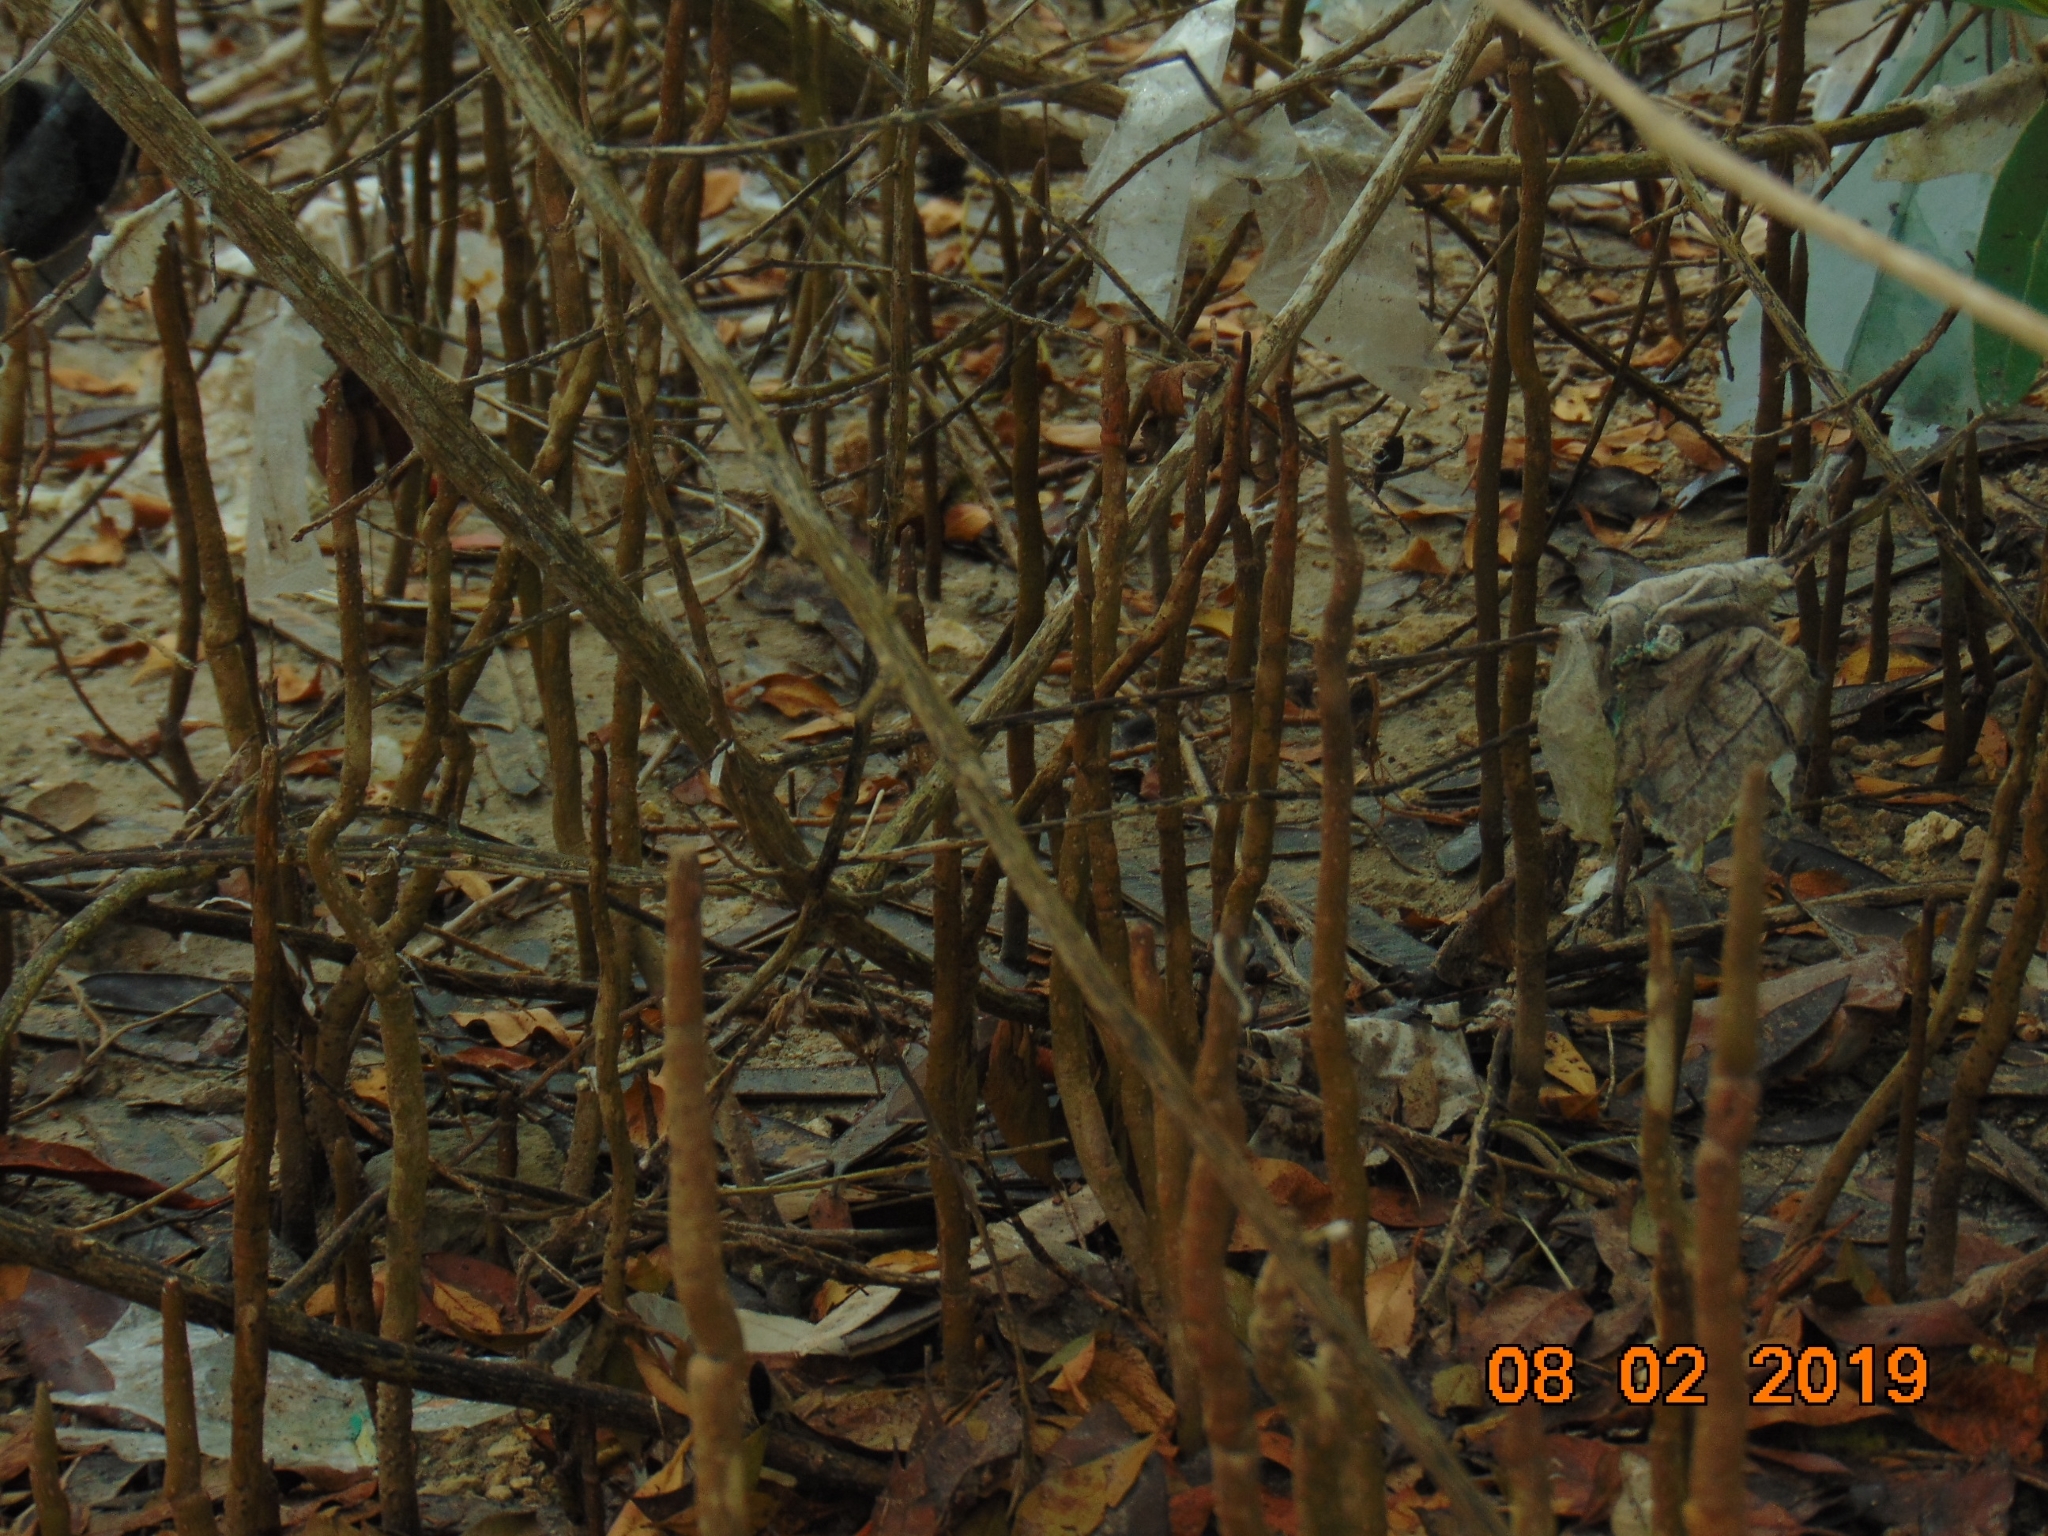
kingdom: Plantae
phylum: Tracheophyta
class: Magnoliopsida
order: Lamiales
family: Acanthaceae
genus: Avicennia
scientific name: Avicennia germinans
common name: Black mangrove
